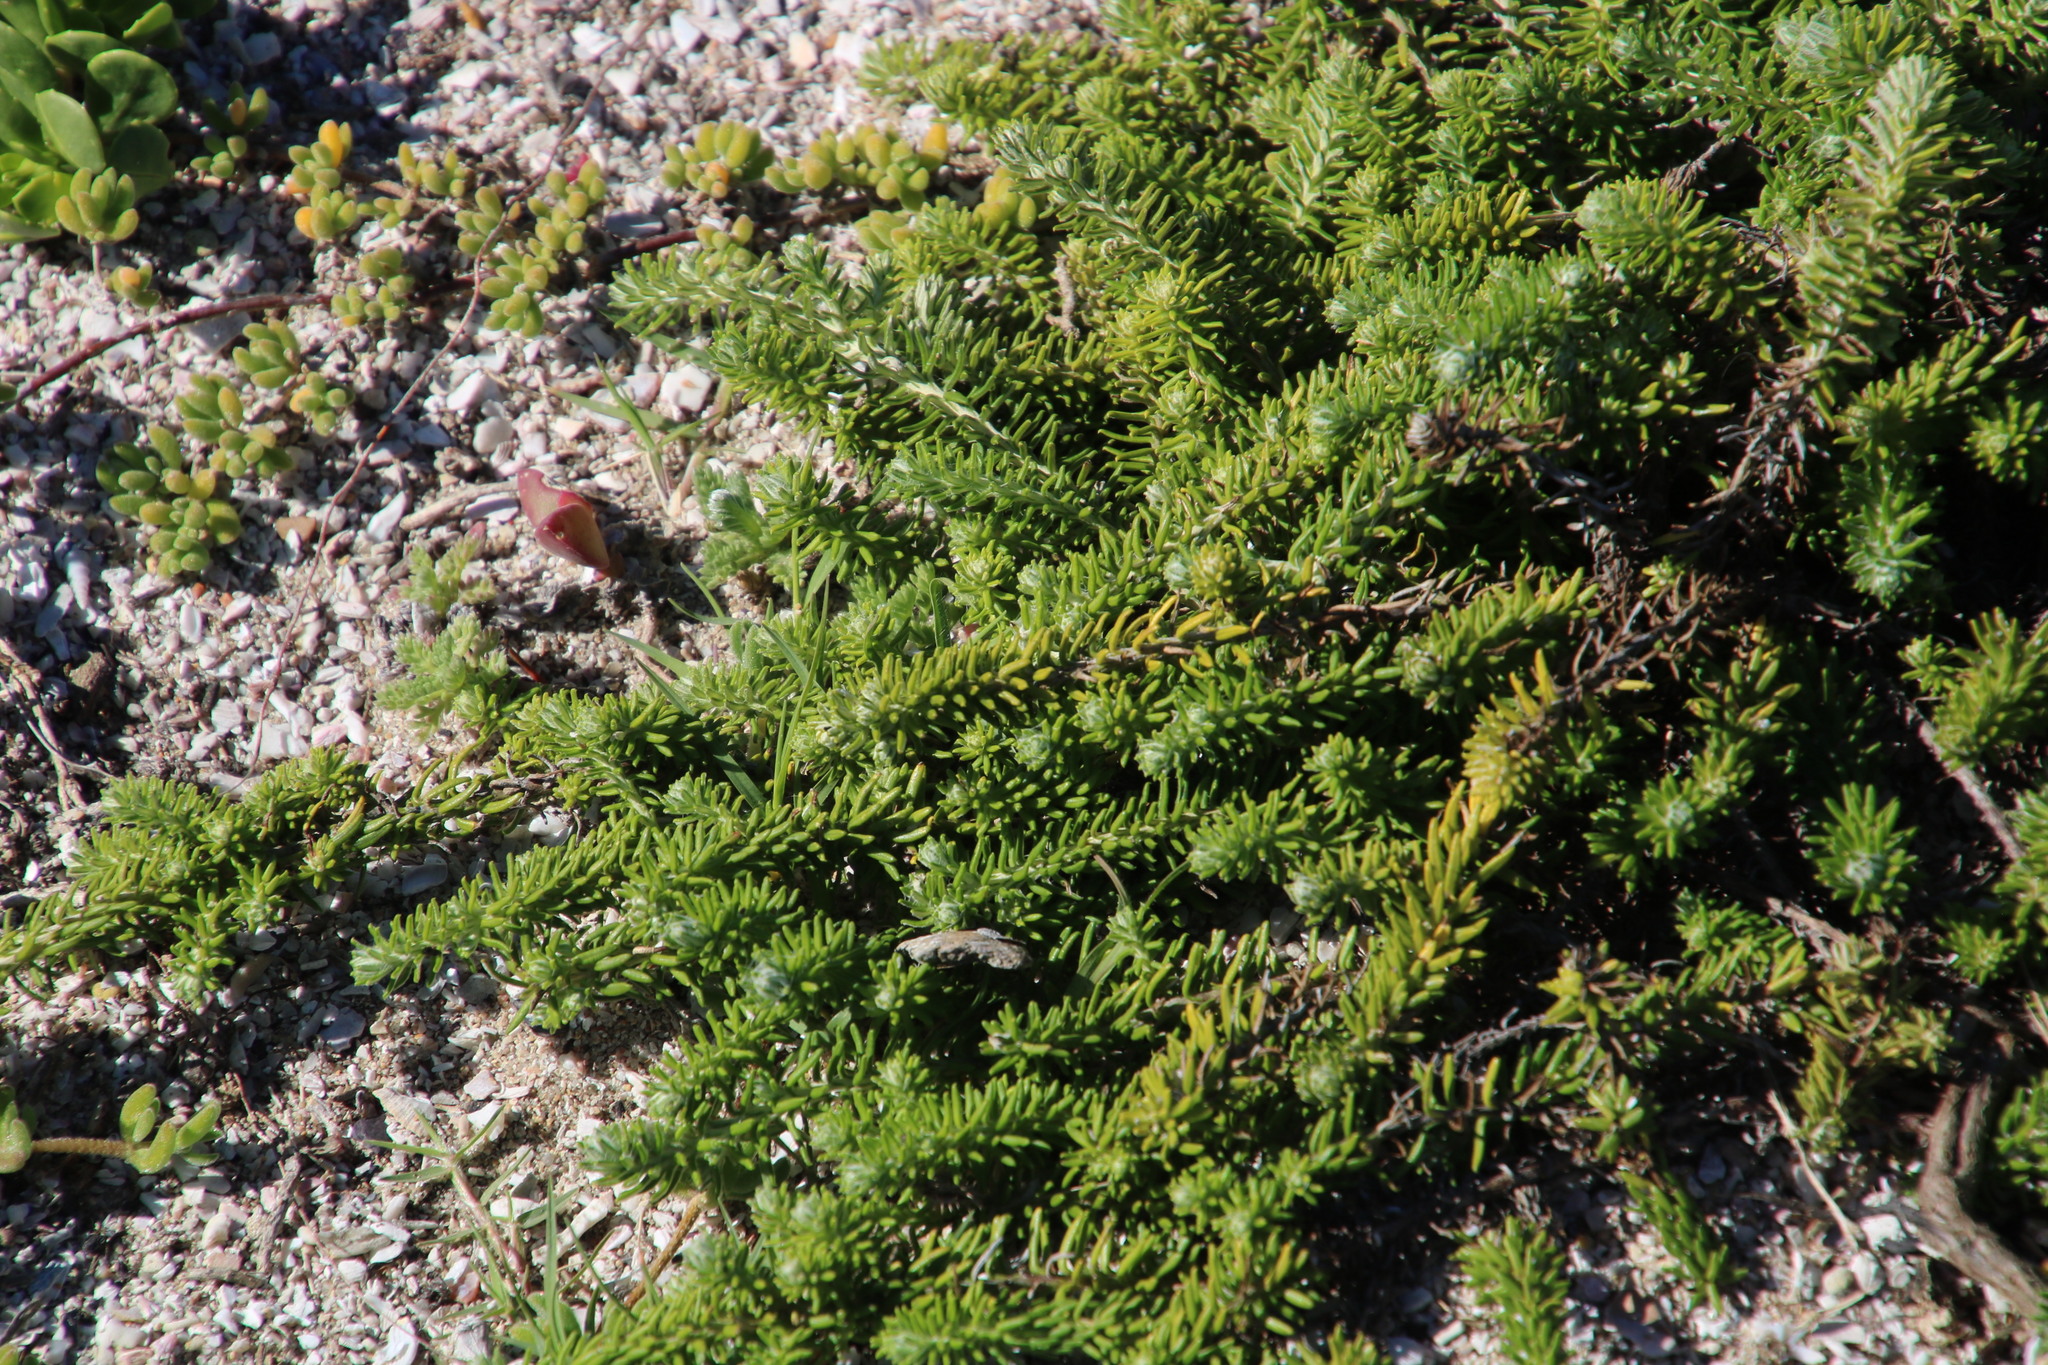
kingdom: Plantae
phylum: Tracheophyta
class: Magnoliopsida
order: Asterales
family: Asteraceae
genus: Helichrysum
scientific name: Helichrysum teretifolium
